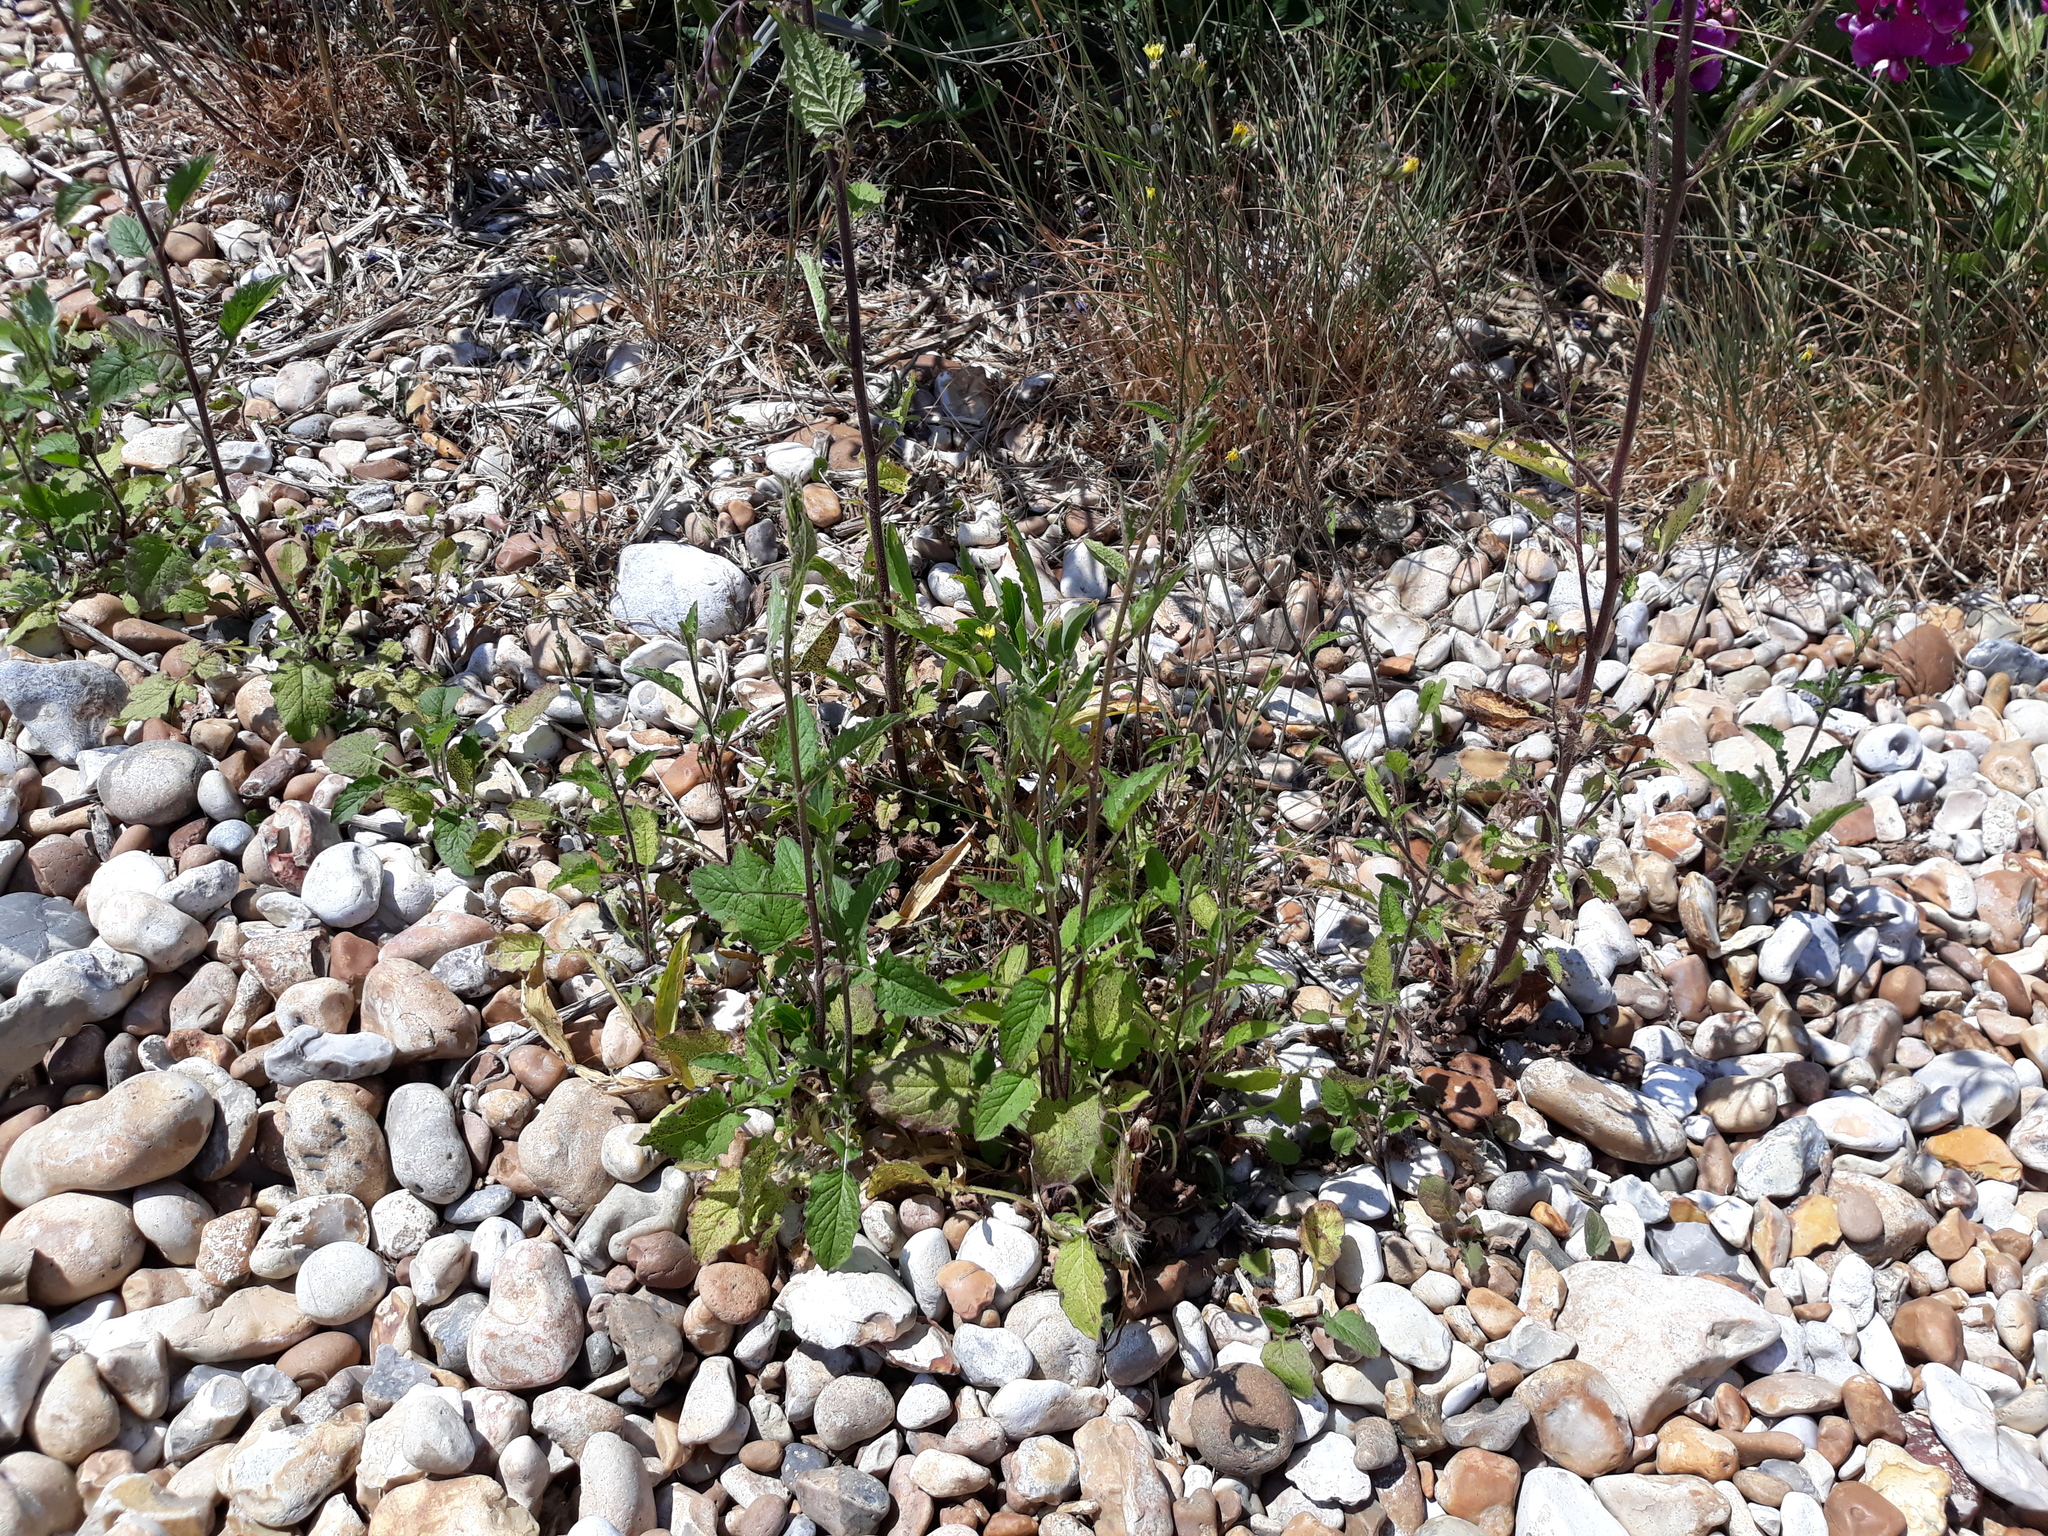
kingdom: Plantae
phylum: Tracheophyta
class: Magnoliopsida
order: Asterales
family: Asteraceae
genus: Lapsana
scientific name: Lapsana communis
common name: Nipplewort
